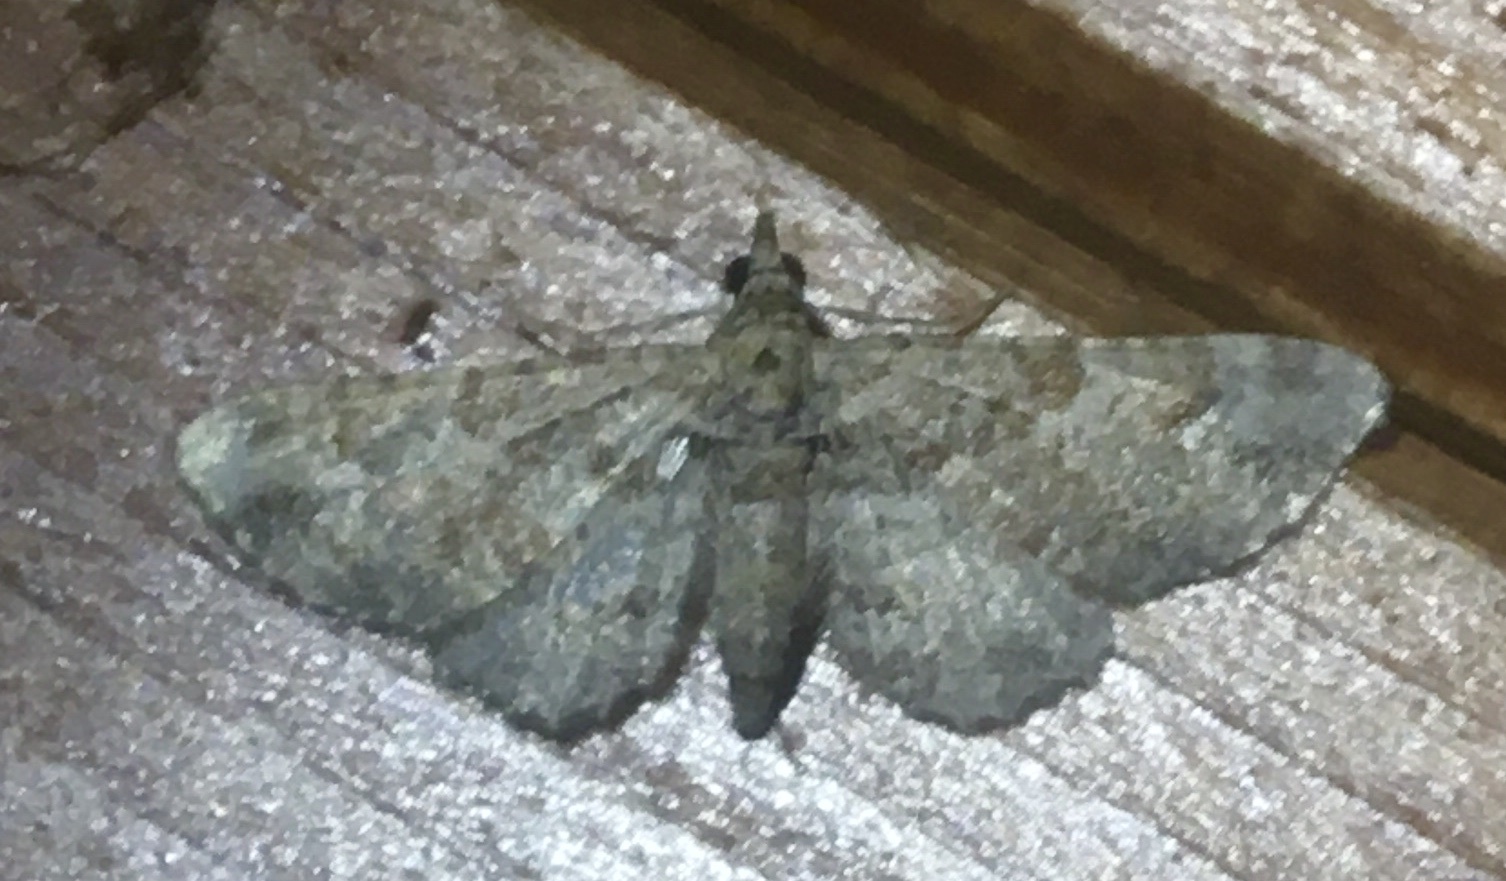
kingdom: Animalia
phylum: Arthropoda
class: Insecta
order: Lepidoptera
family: Geometridae
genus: Gymnoscelis
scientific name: Gymnoscelis rufifasciata
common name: Double-striped pug
